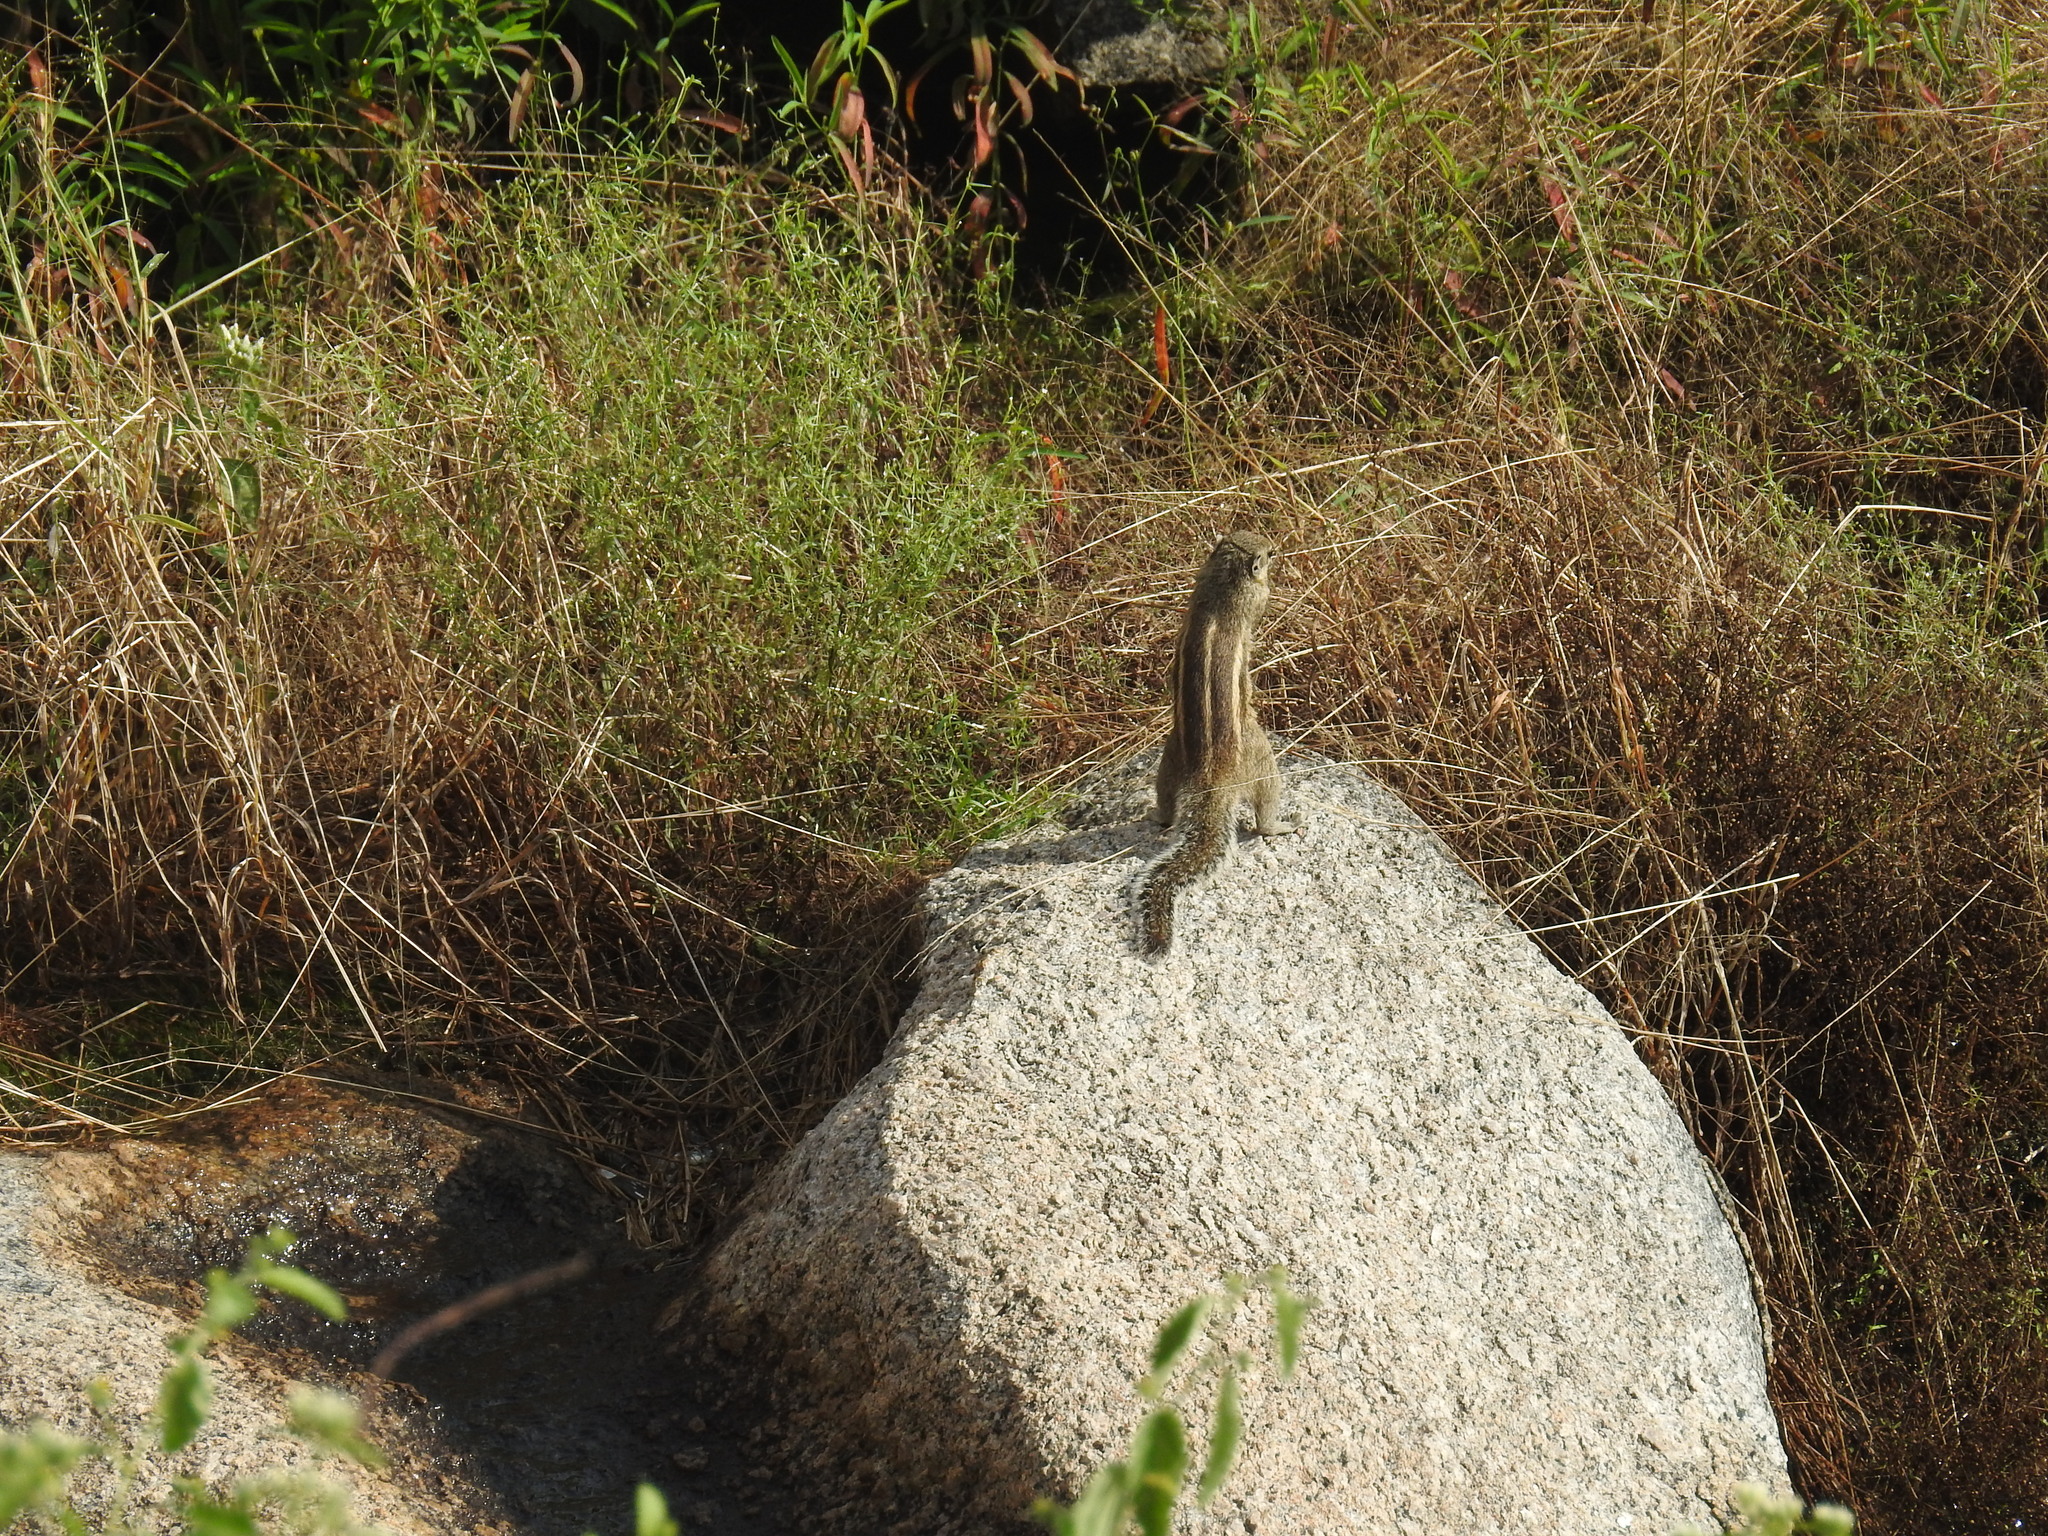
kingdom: Animalia
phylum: Chordata
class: Mammalia
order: Rodentia
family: Sciuridae
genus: Funambulus
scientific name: Funambulus palmarum
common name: Indian palm squirrel
